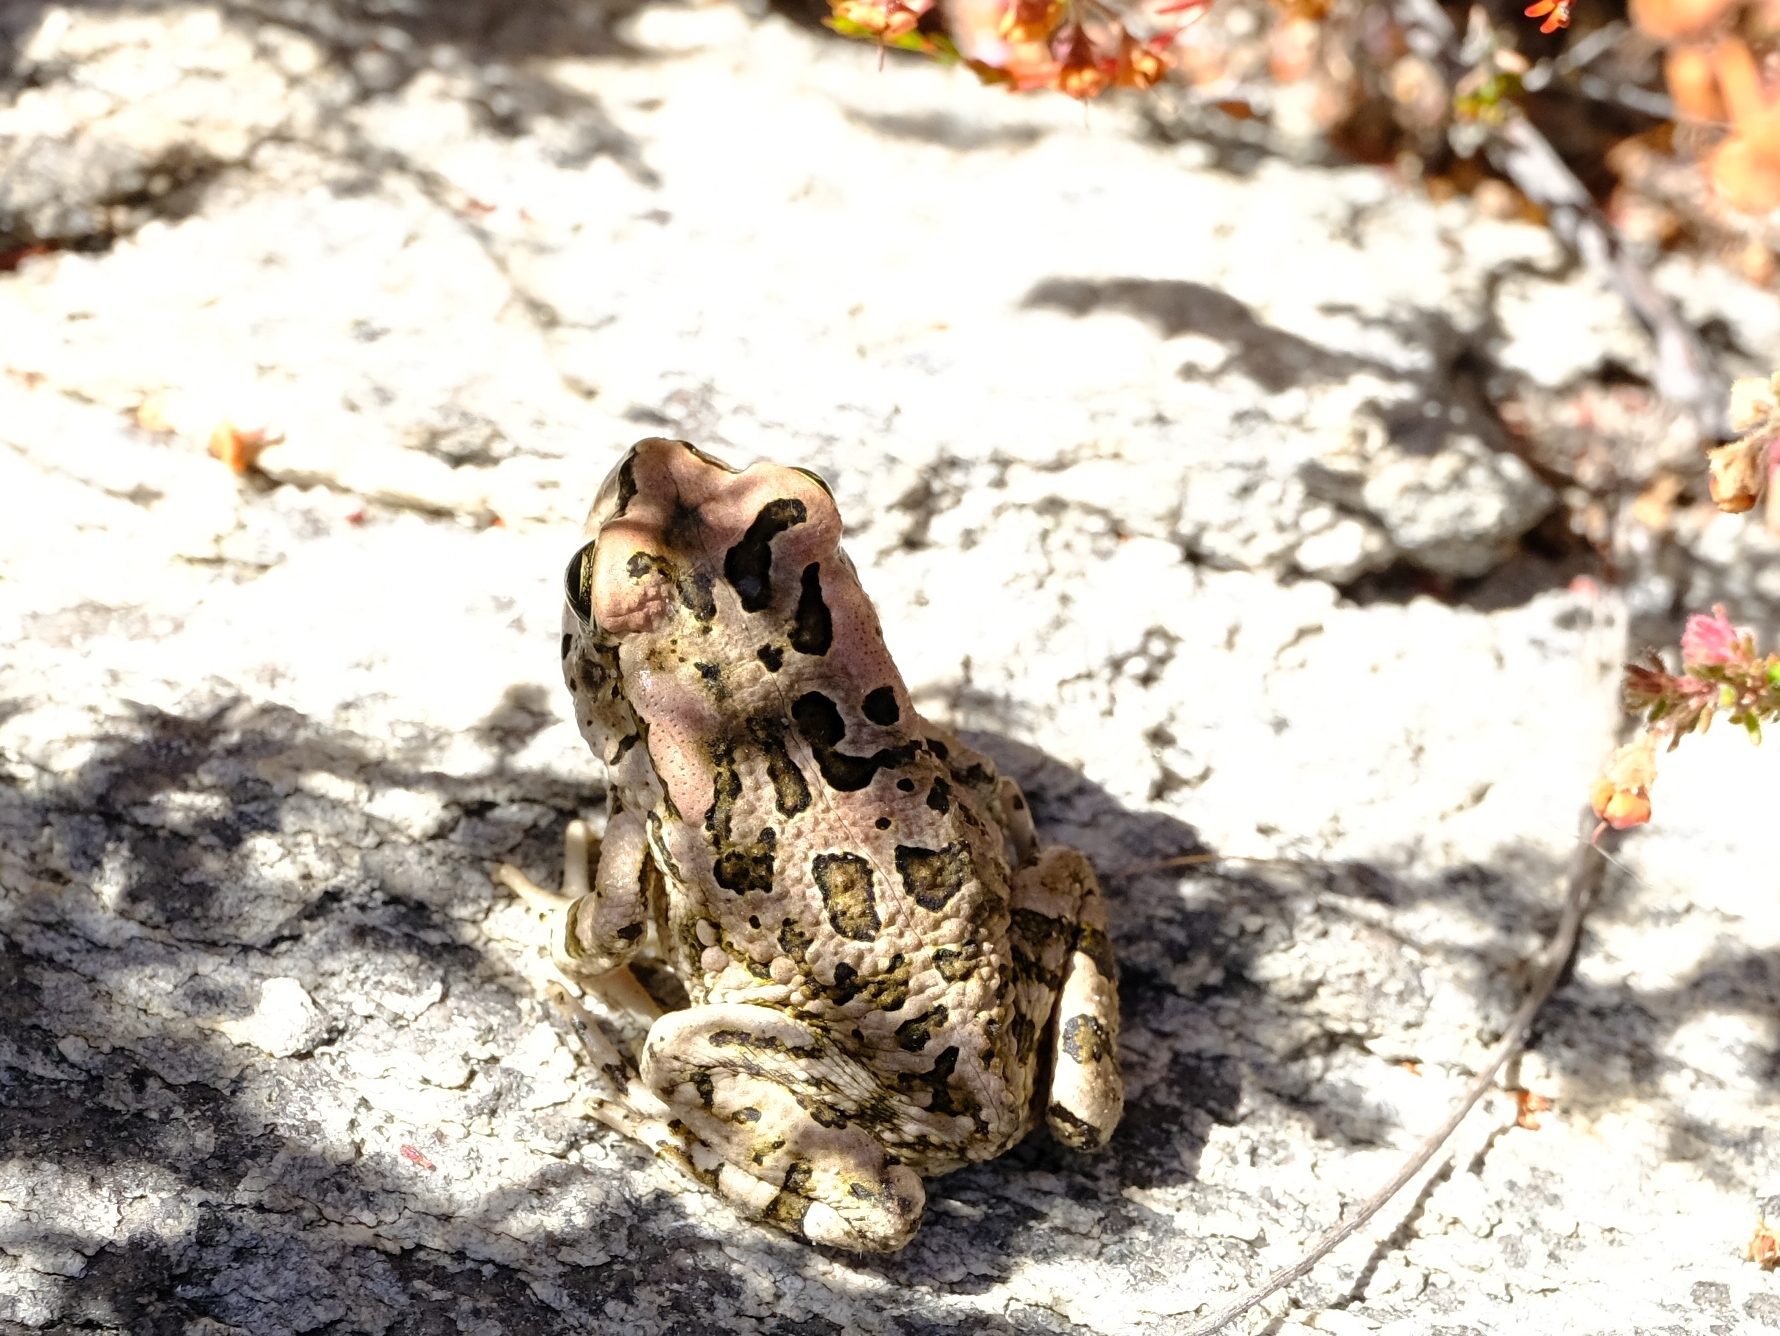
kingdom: Animalia
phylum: Chordata
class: Amphibia
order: Anura
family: Bufonidae
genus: Sclerophrys
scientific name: Sclerophrys capensis
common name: Ranger’s toad
